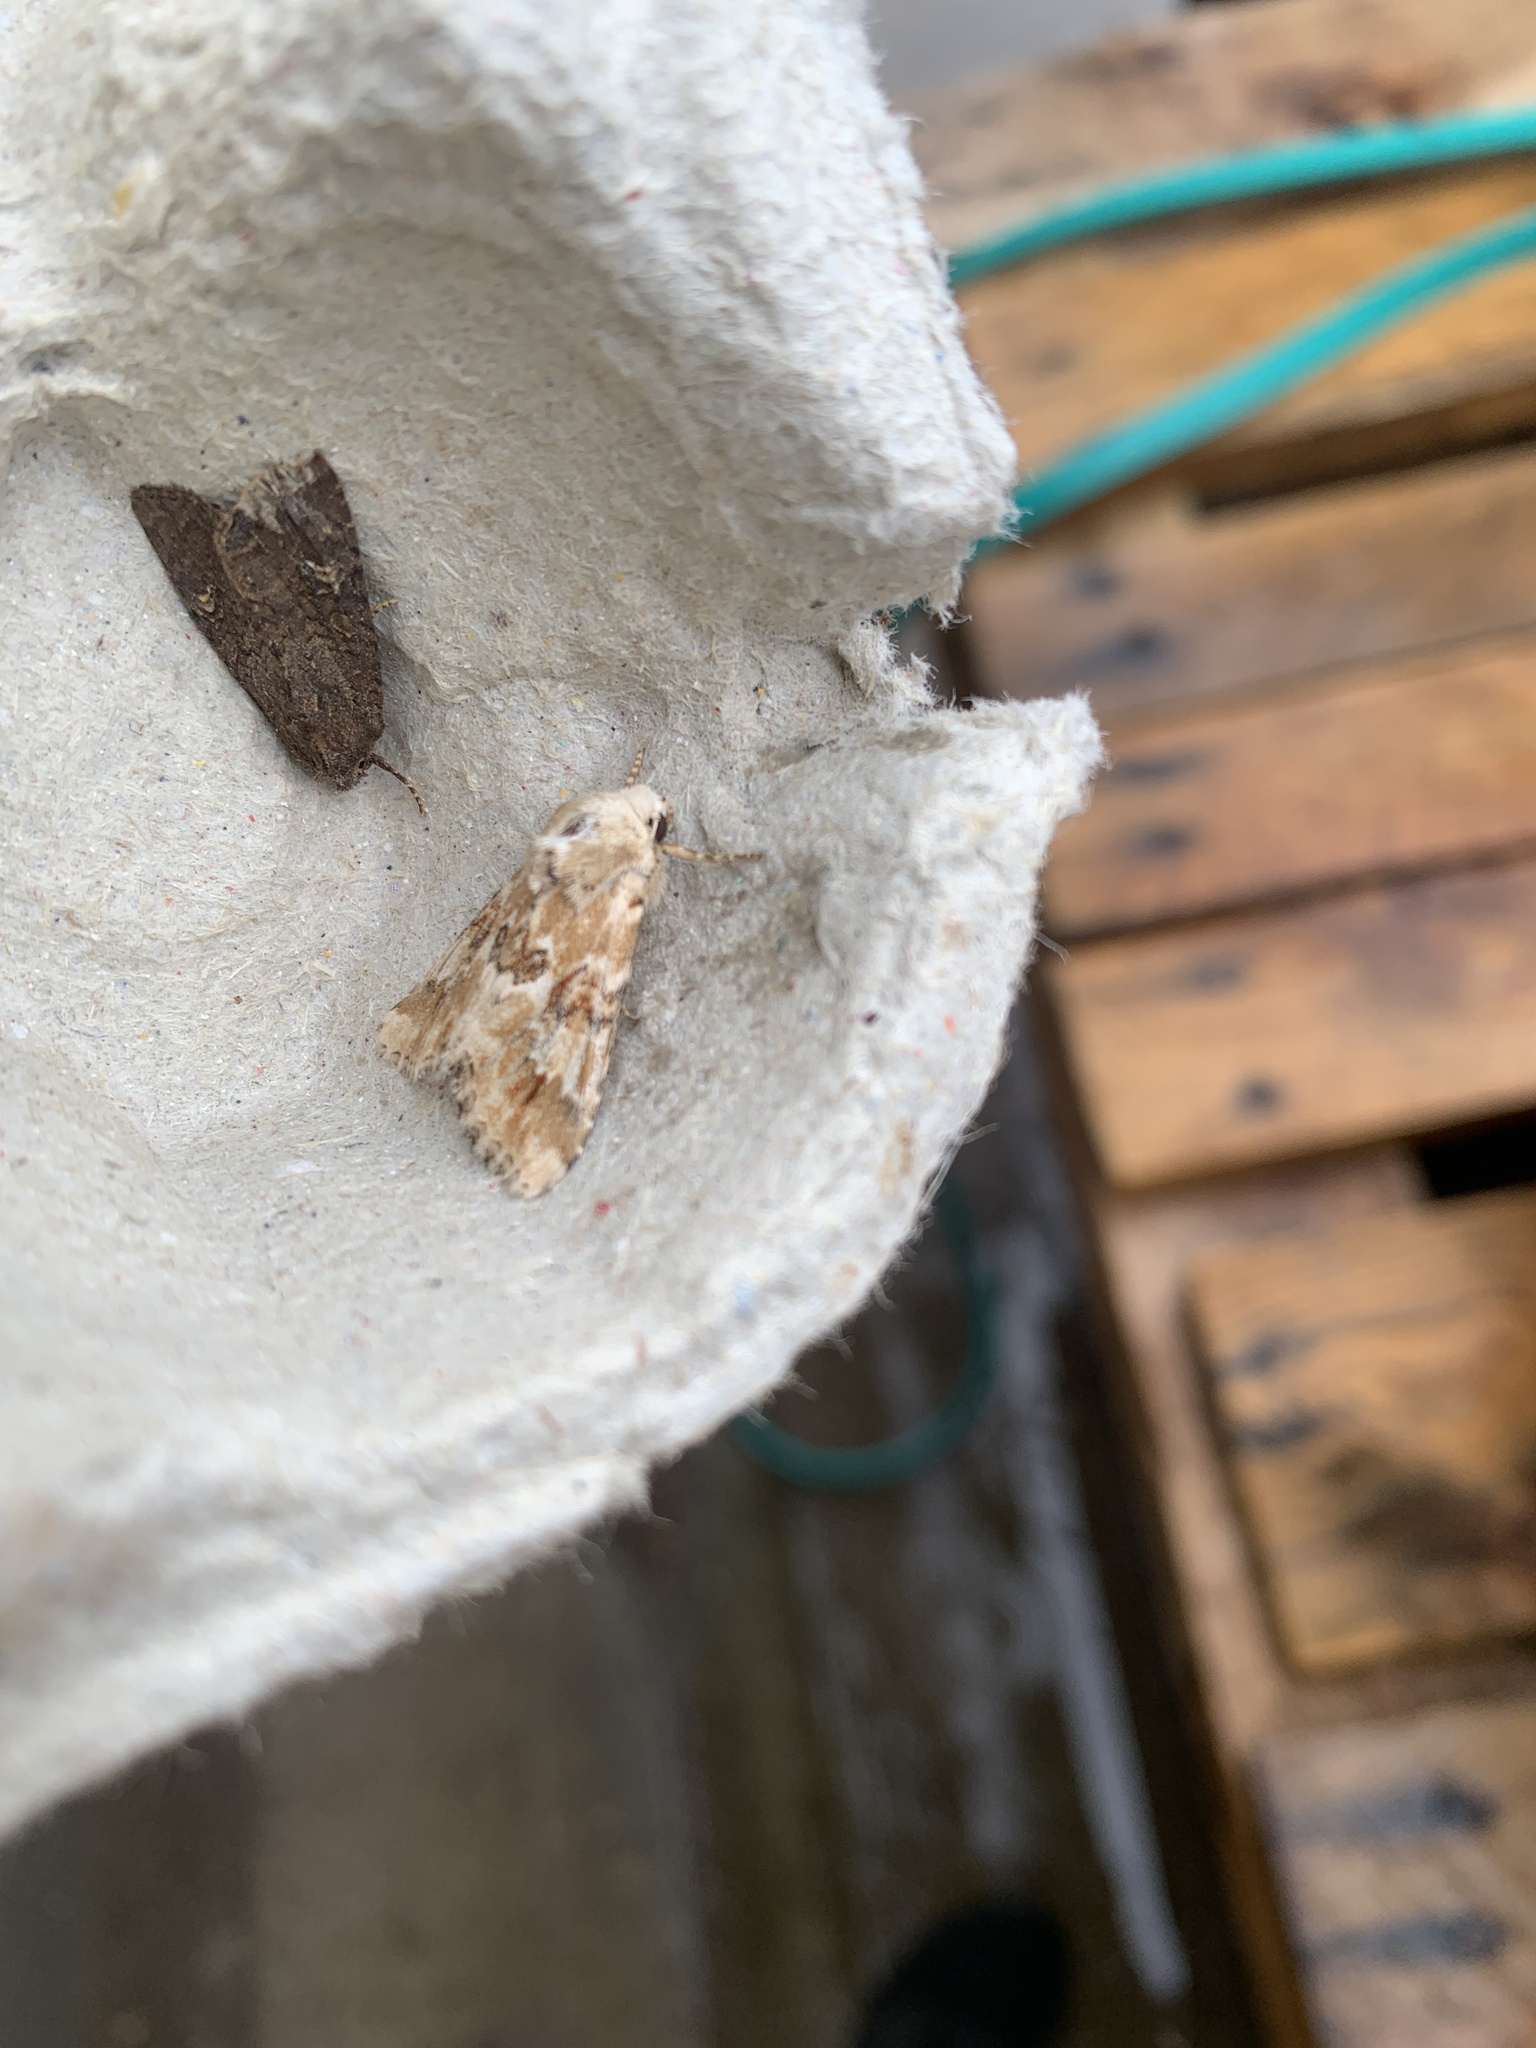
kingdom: Animalia
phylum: Arthropoda
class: Insecta
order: Lepidoptera
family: Noctuidae
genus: Eremobia
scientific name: Eremobia ochroleuca
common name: Dusky sallow
